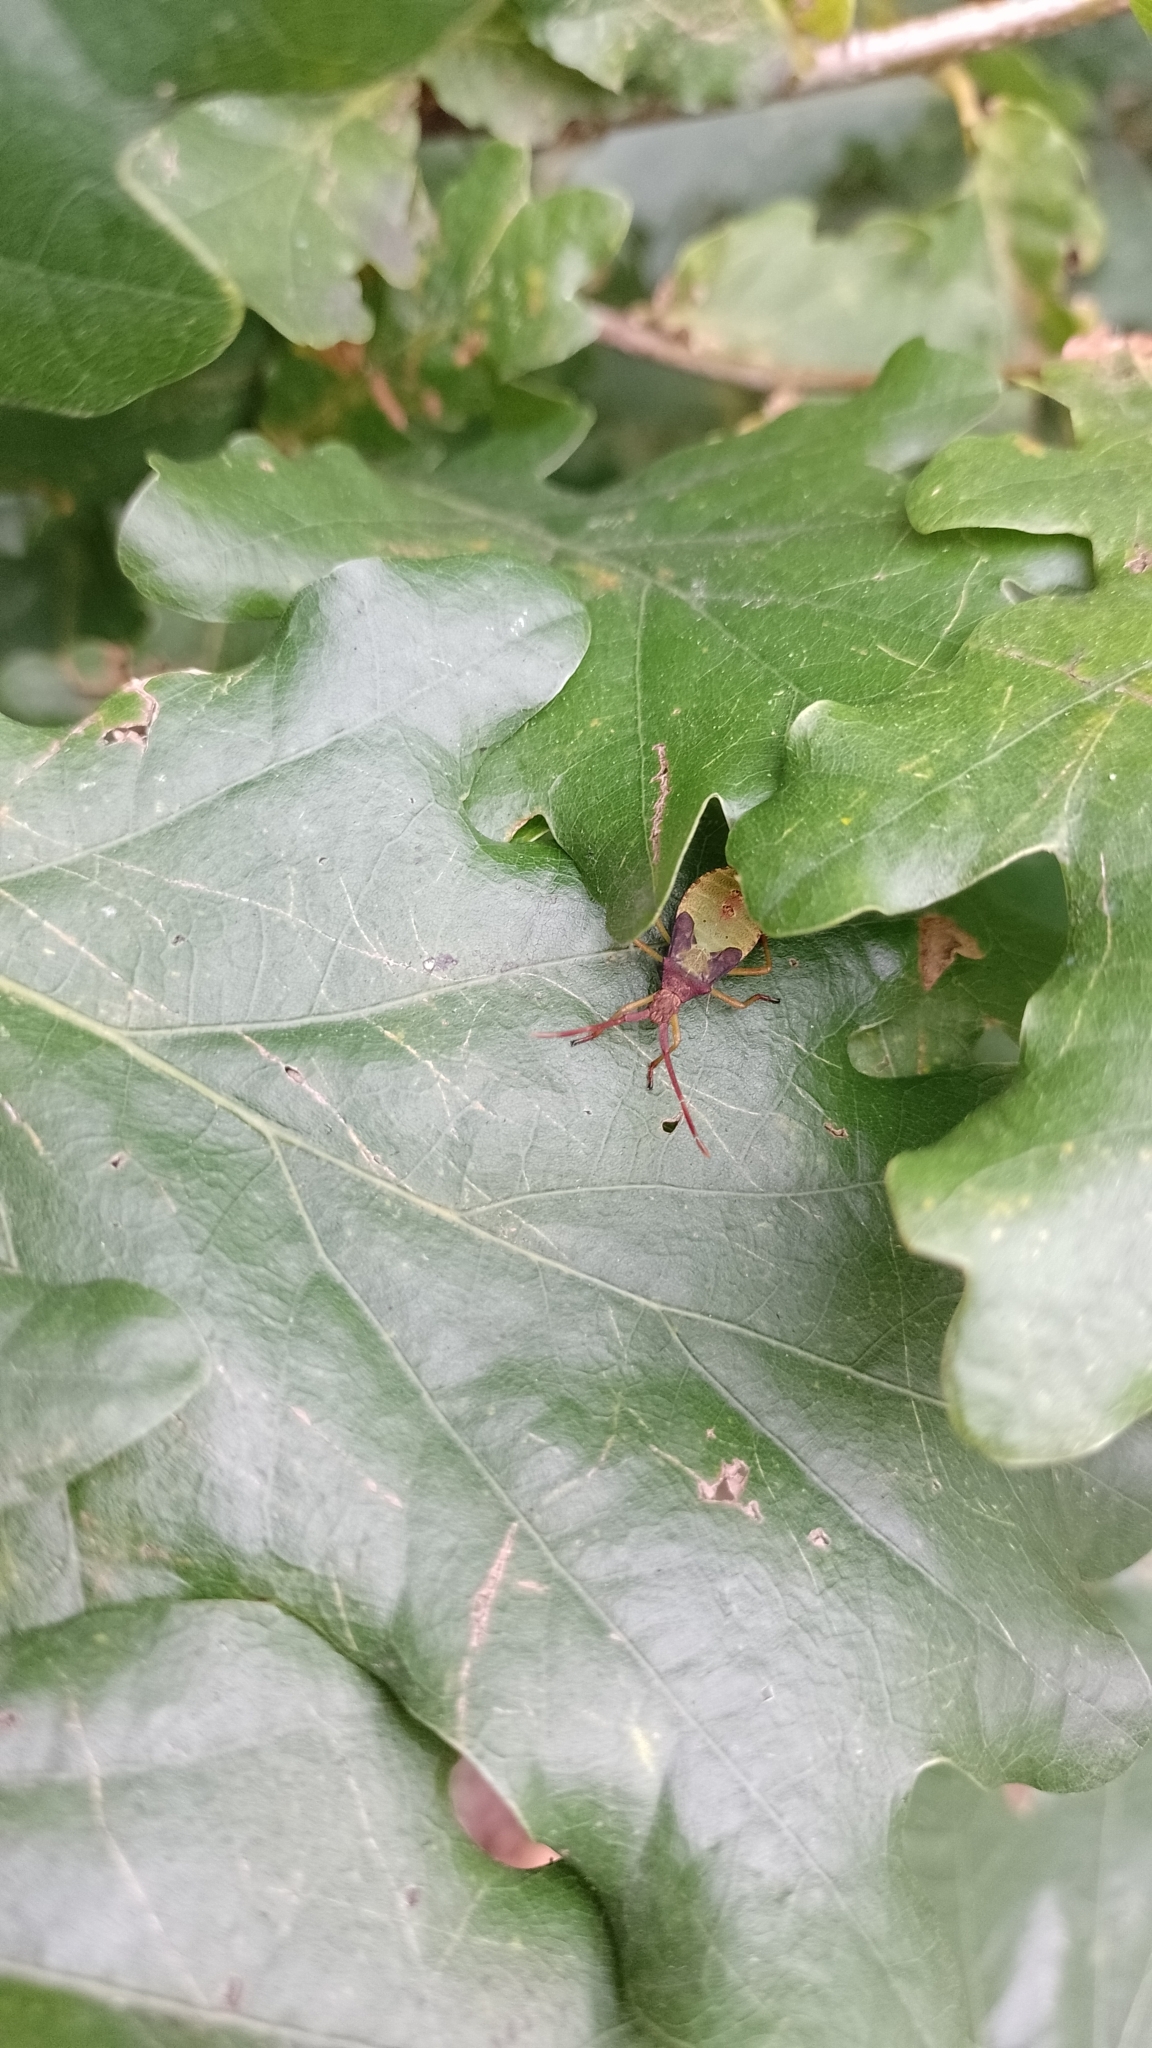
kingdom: Animalia
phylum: Arthropoda
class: Insecta
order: Hemiptera
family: Coreidae
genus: Gonocerus
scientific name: Gonocerus acuteangulatus
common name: Box bug
